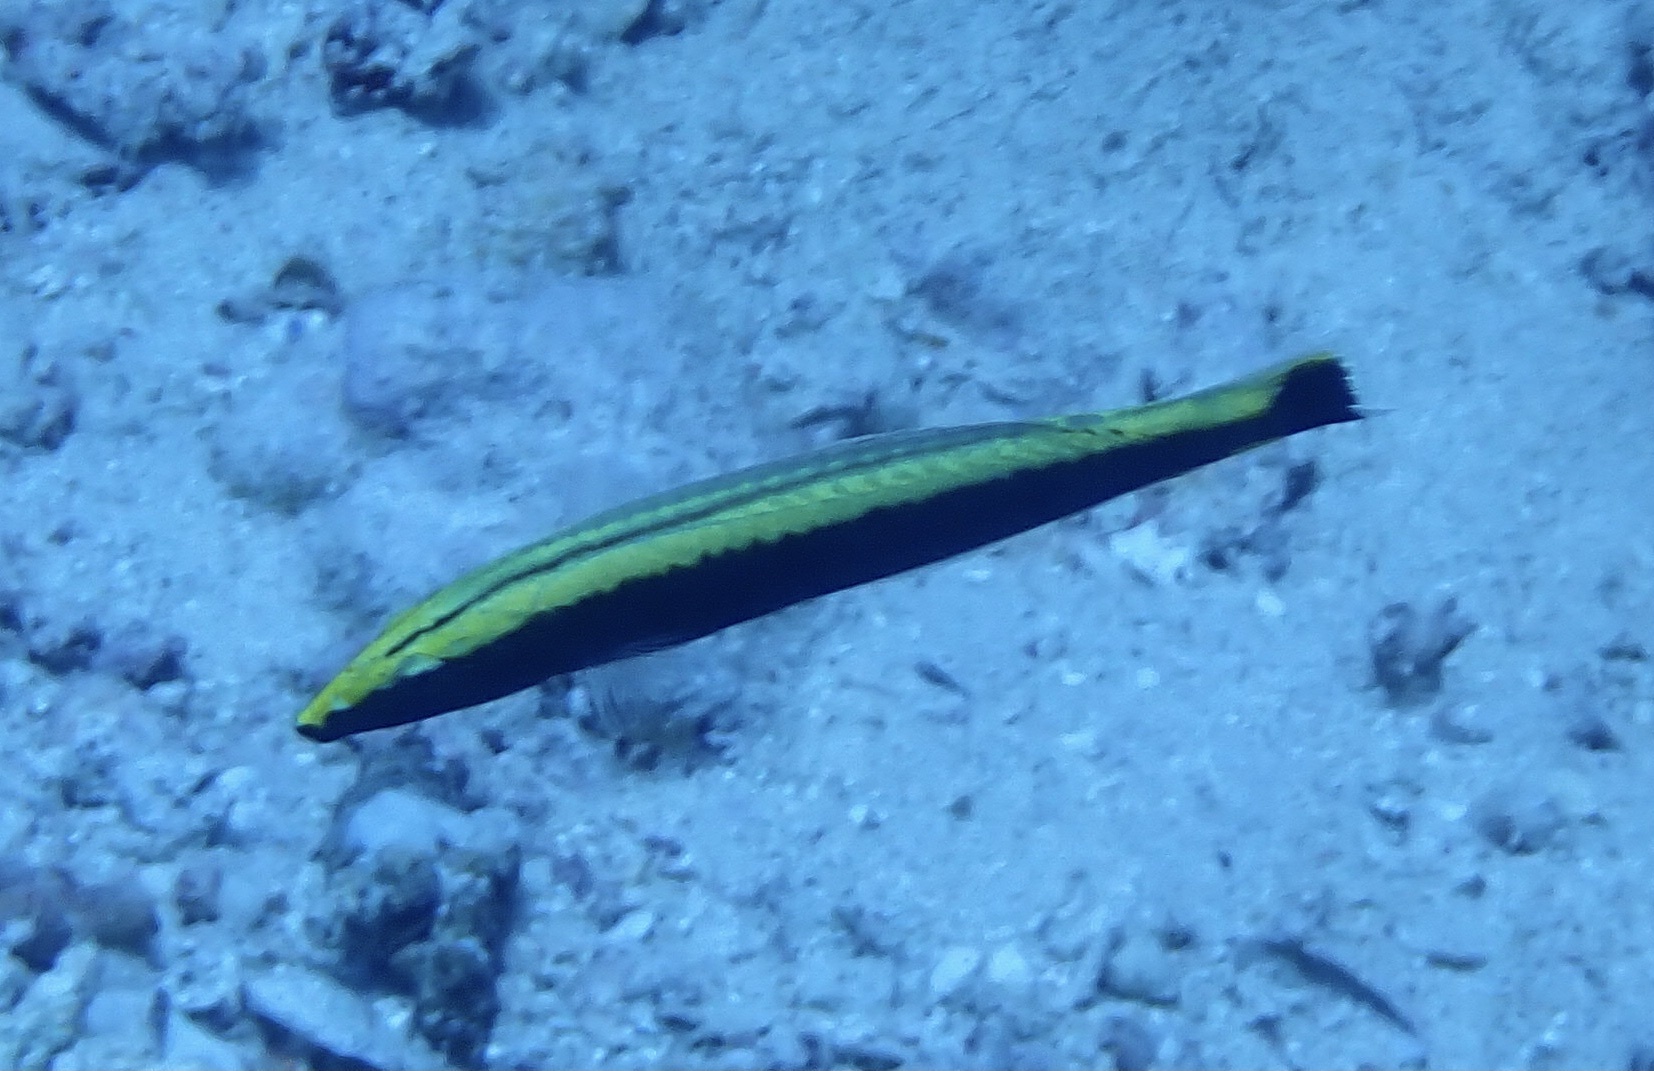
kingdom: Animalia
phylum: Chordata
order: Perciformes
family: Labridae
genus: Hologymnosus
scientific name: Hologymnosus annulatus
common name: Ring wrasse
